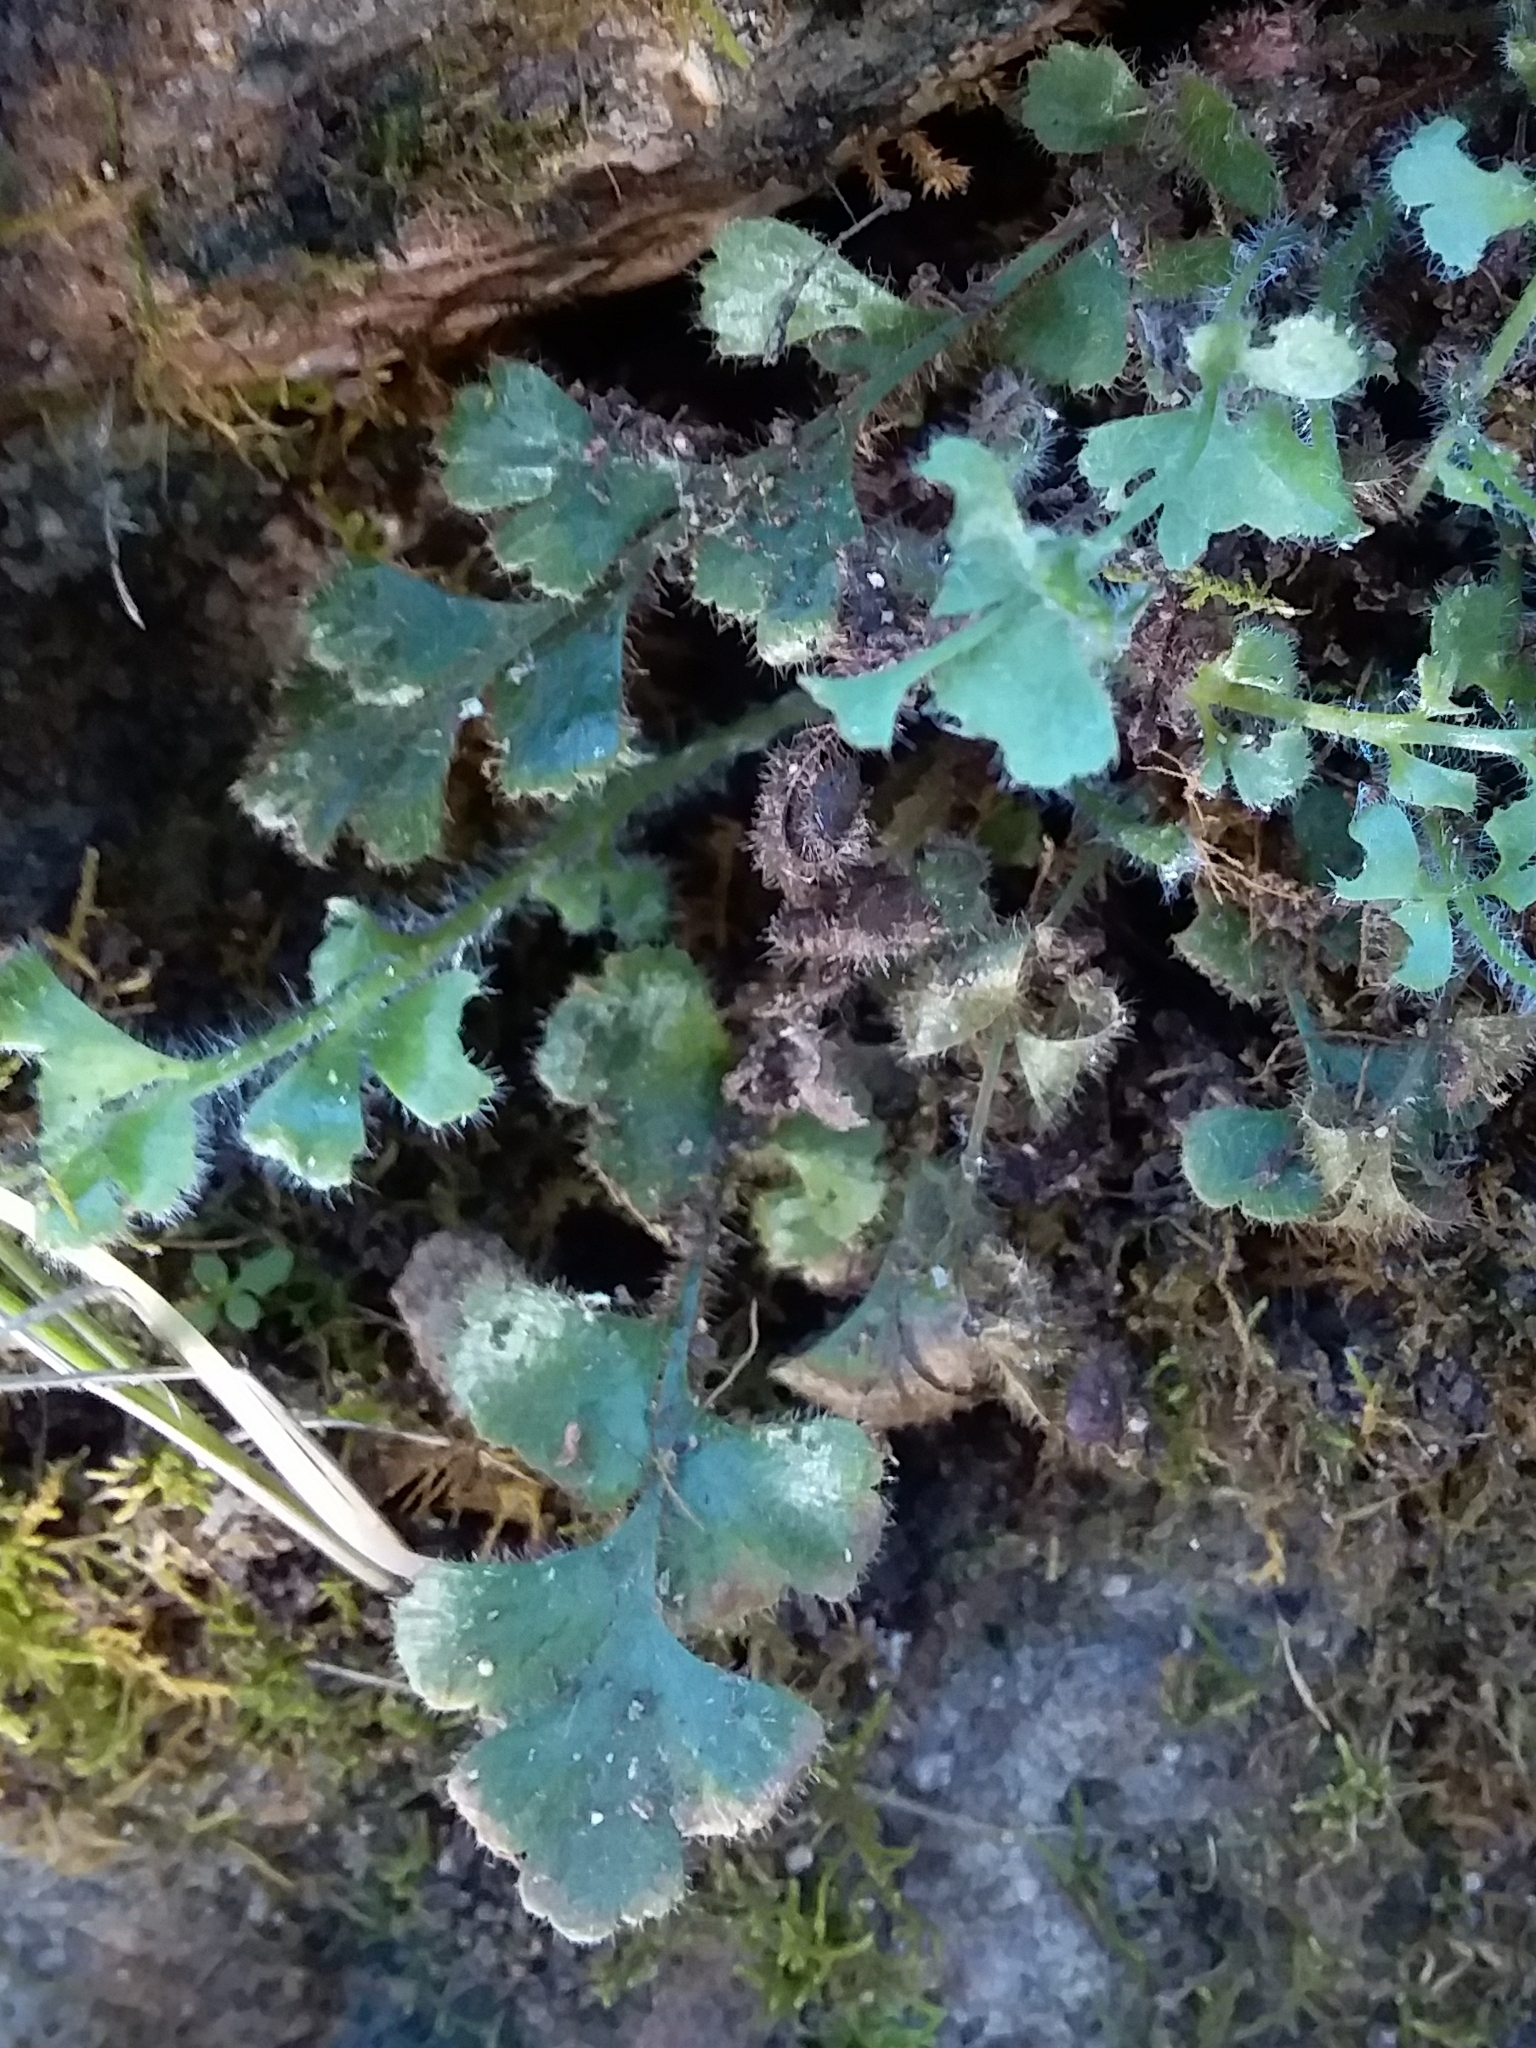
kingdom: Plantae
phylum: Tracheophyta
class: Polypodiopsida
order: Polypodiales
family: Aspleniaceae
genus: Asplenium
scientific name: Asplenium subglandulosum
